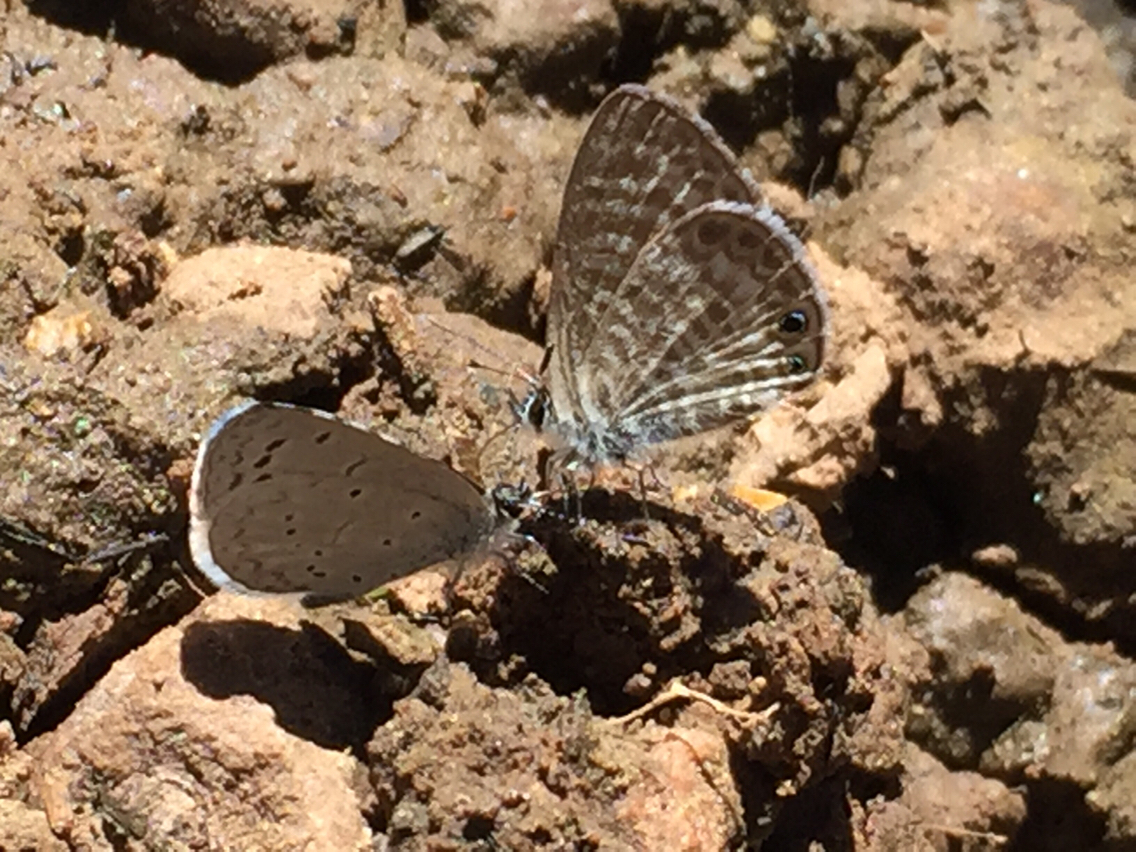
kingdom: Animalia
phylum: Arthropoda
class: Insecta
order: Lepidoptera
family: Lycaenidae
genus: Leptotes
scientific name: Leptotes marina
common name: Marine blue
